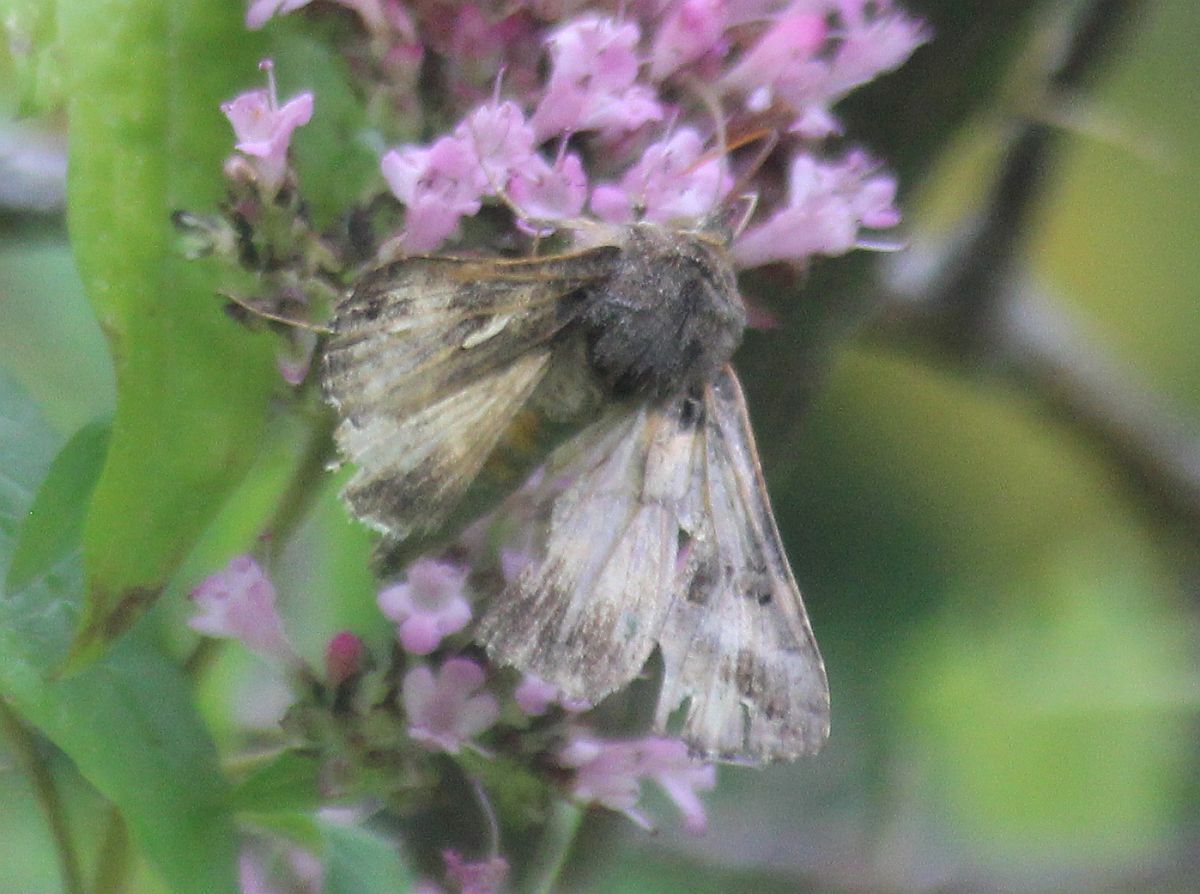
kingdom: Animalia
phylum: Arthropoda
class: Insecta
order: Lepidoptera
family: Noctuidae
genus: Autographa
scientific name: Autographa gamma
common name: Silver y
